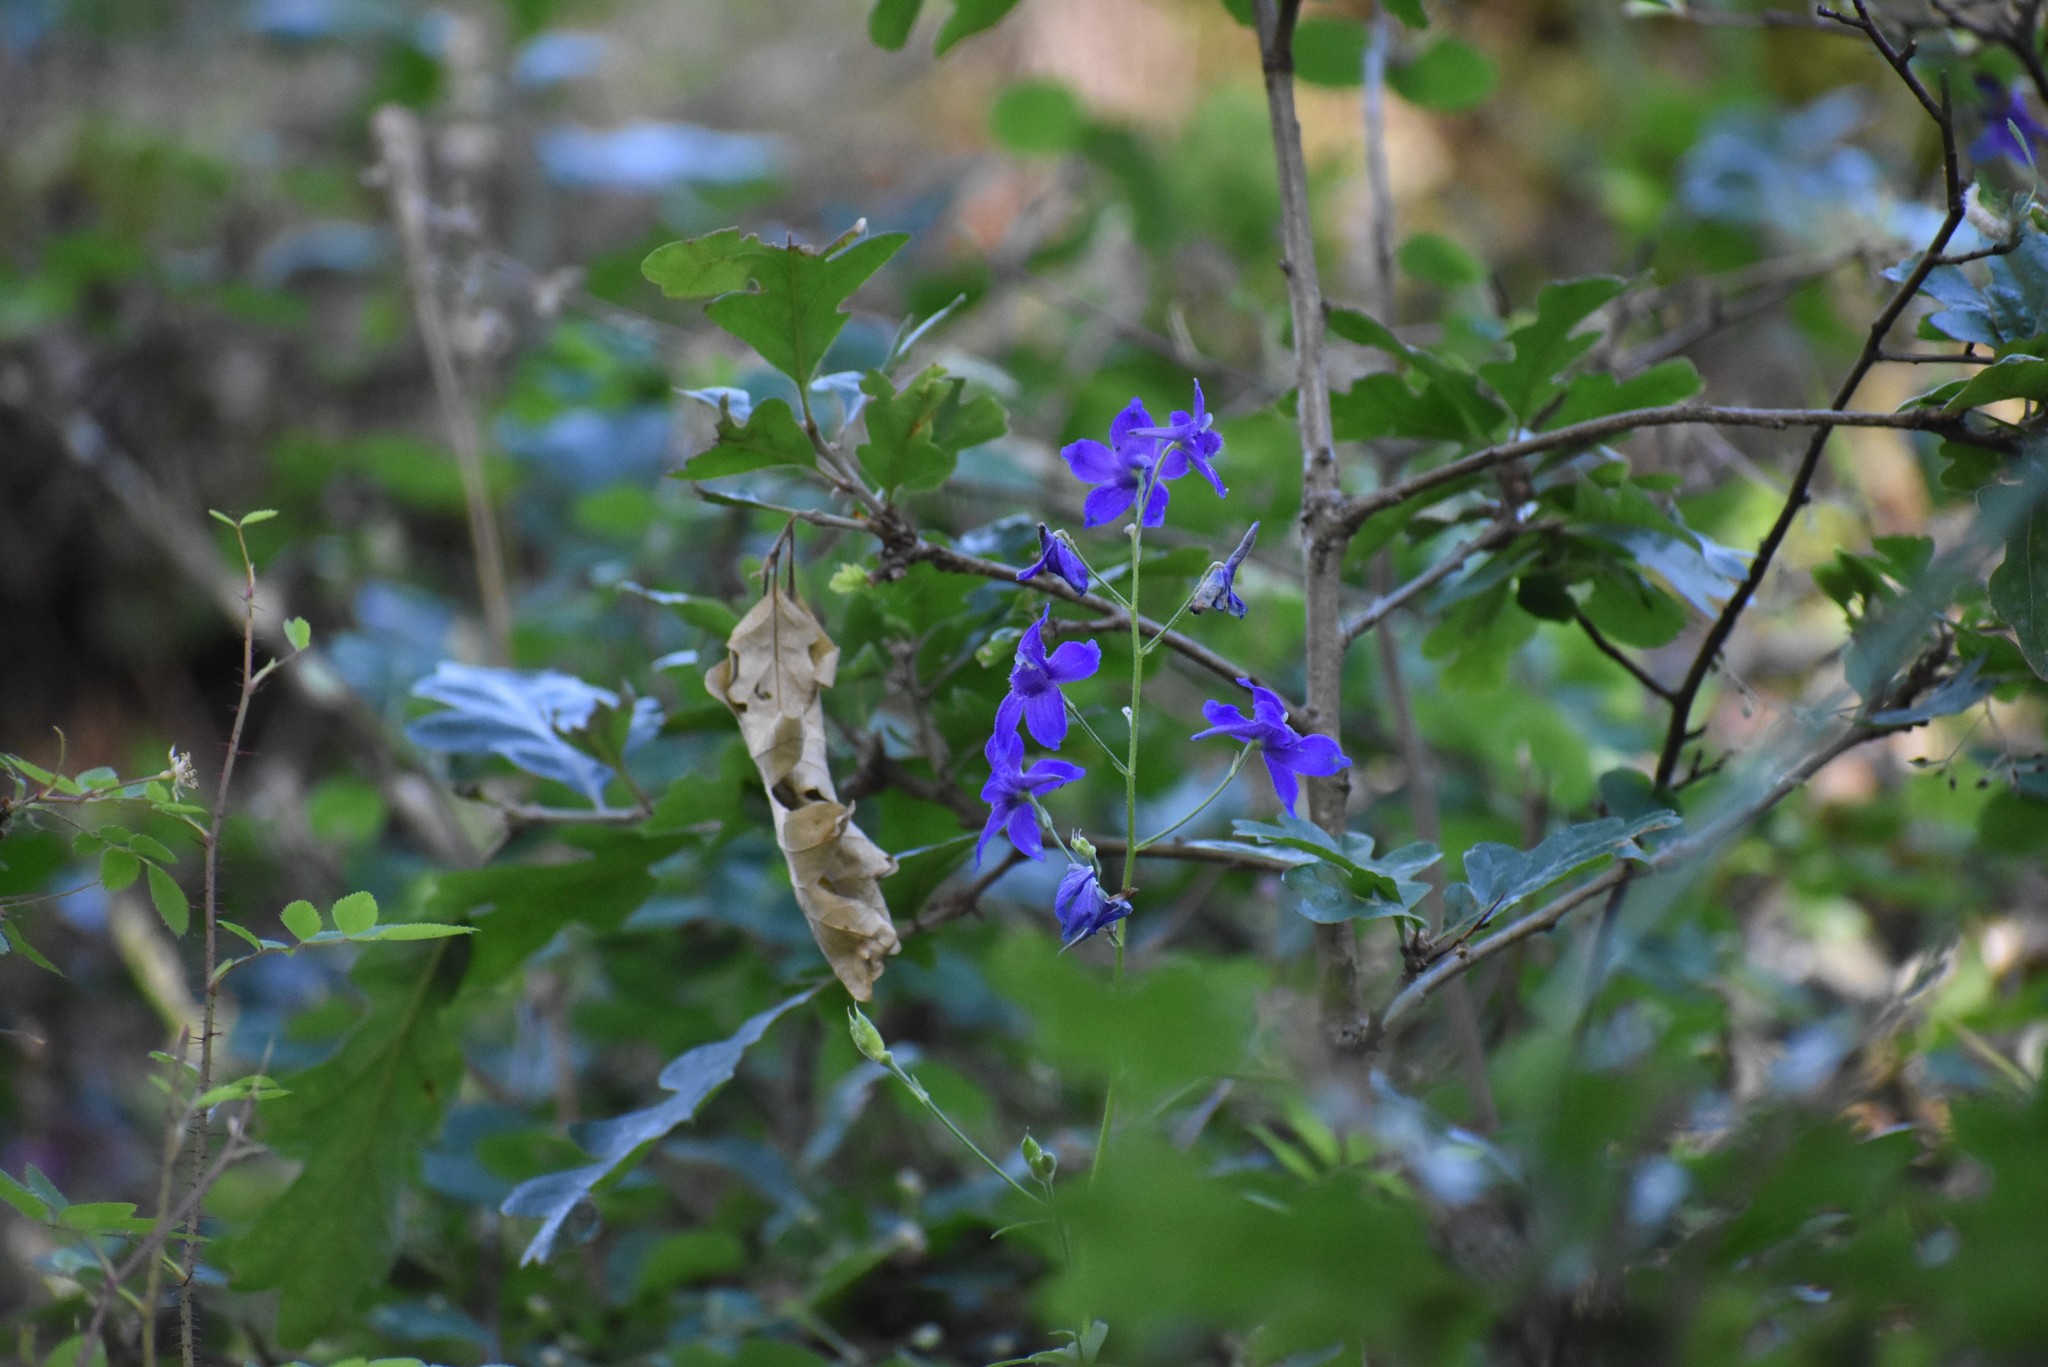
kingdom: Plantae
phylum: Tracheophyta
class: Magnoliopsida
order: Ranunculales
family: Ranunculaceae
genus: Delphinium
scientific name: Delphinium menziesii
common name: Menzies's larkspur
